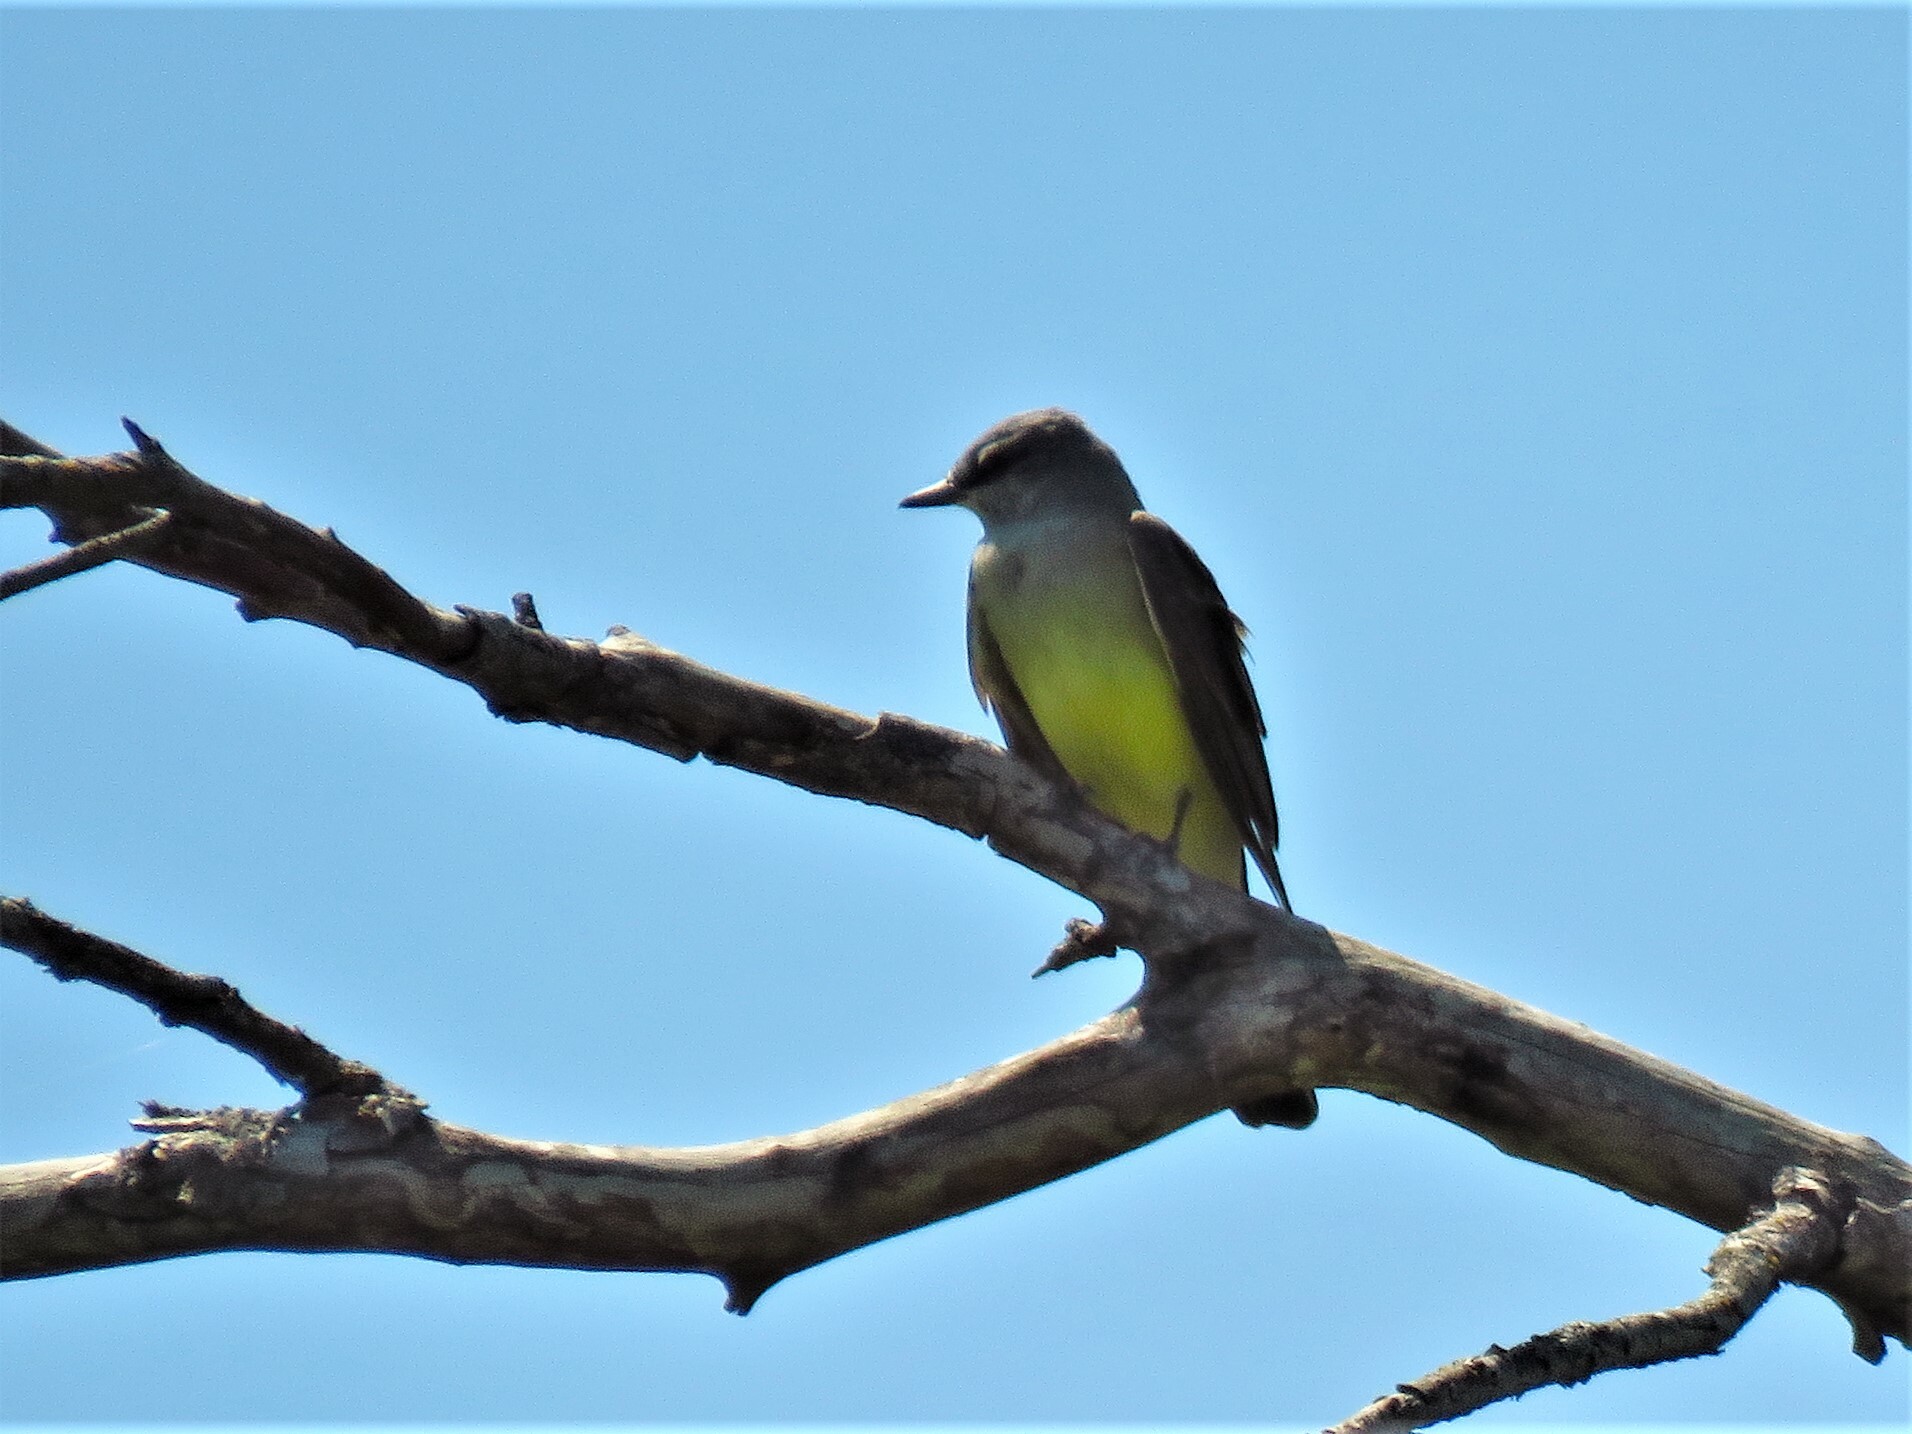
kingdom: Animalia
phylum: Chordata
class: Aves
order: Passeriformes
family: Tyrannidae
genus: Tyrannus
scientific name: Tyrannus verticalis
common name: Western kingbird
